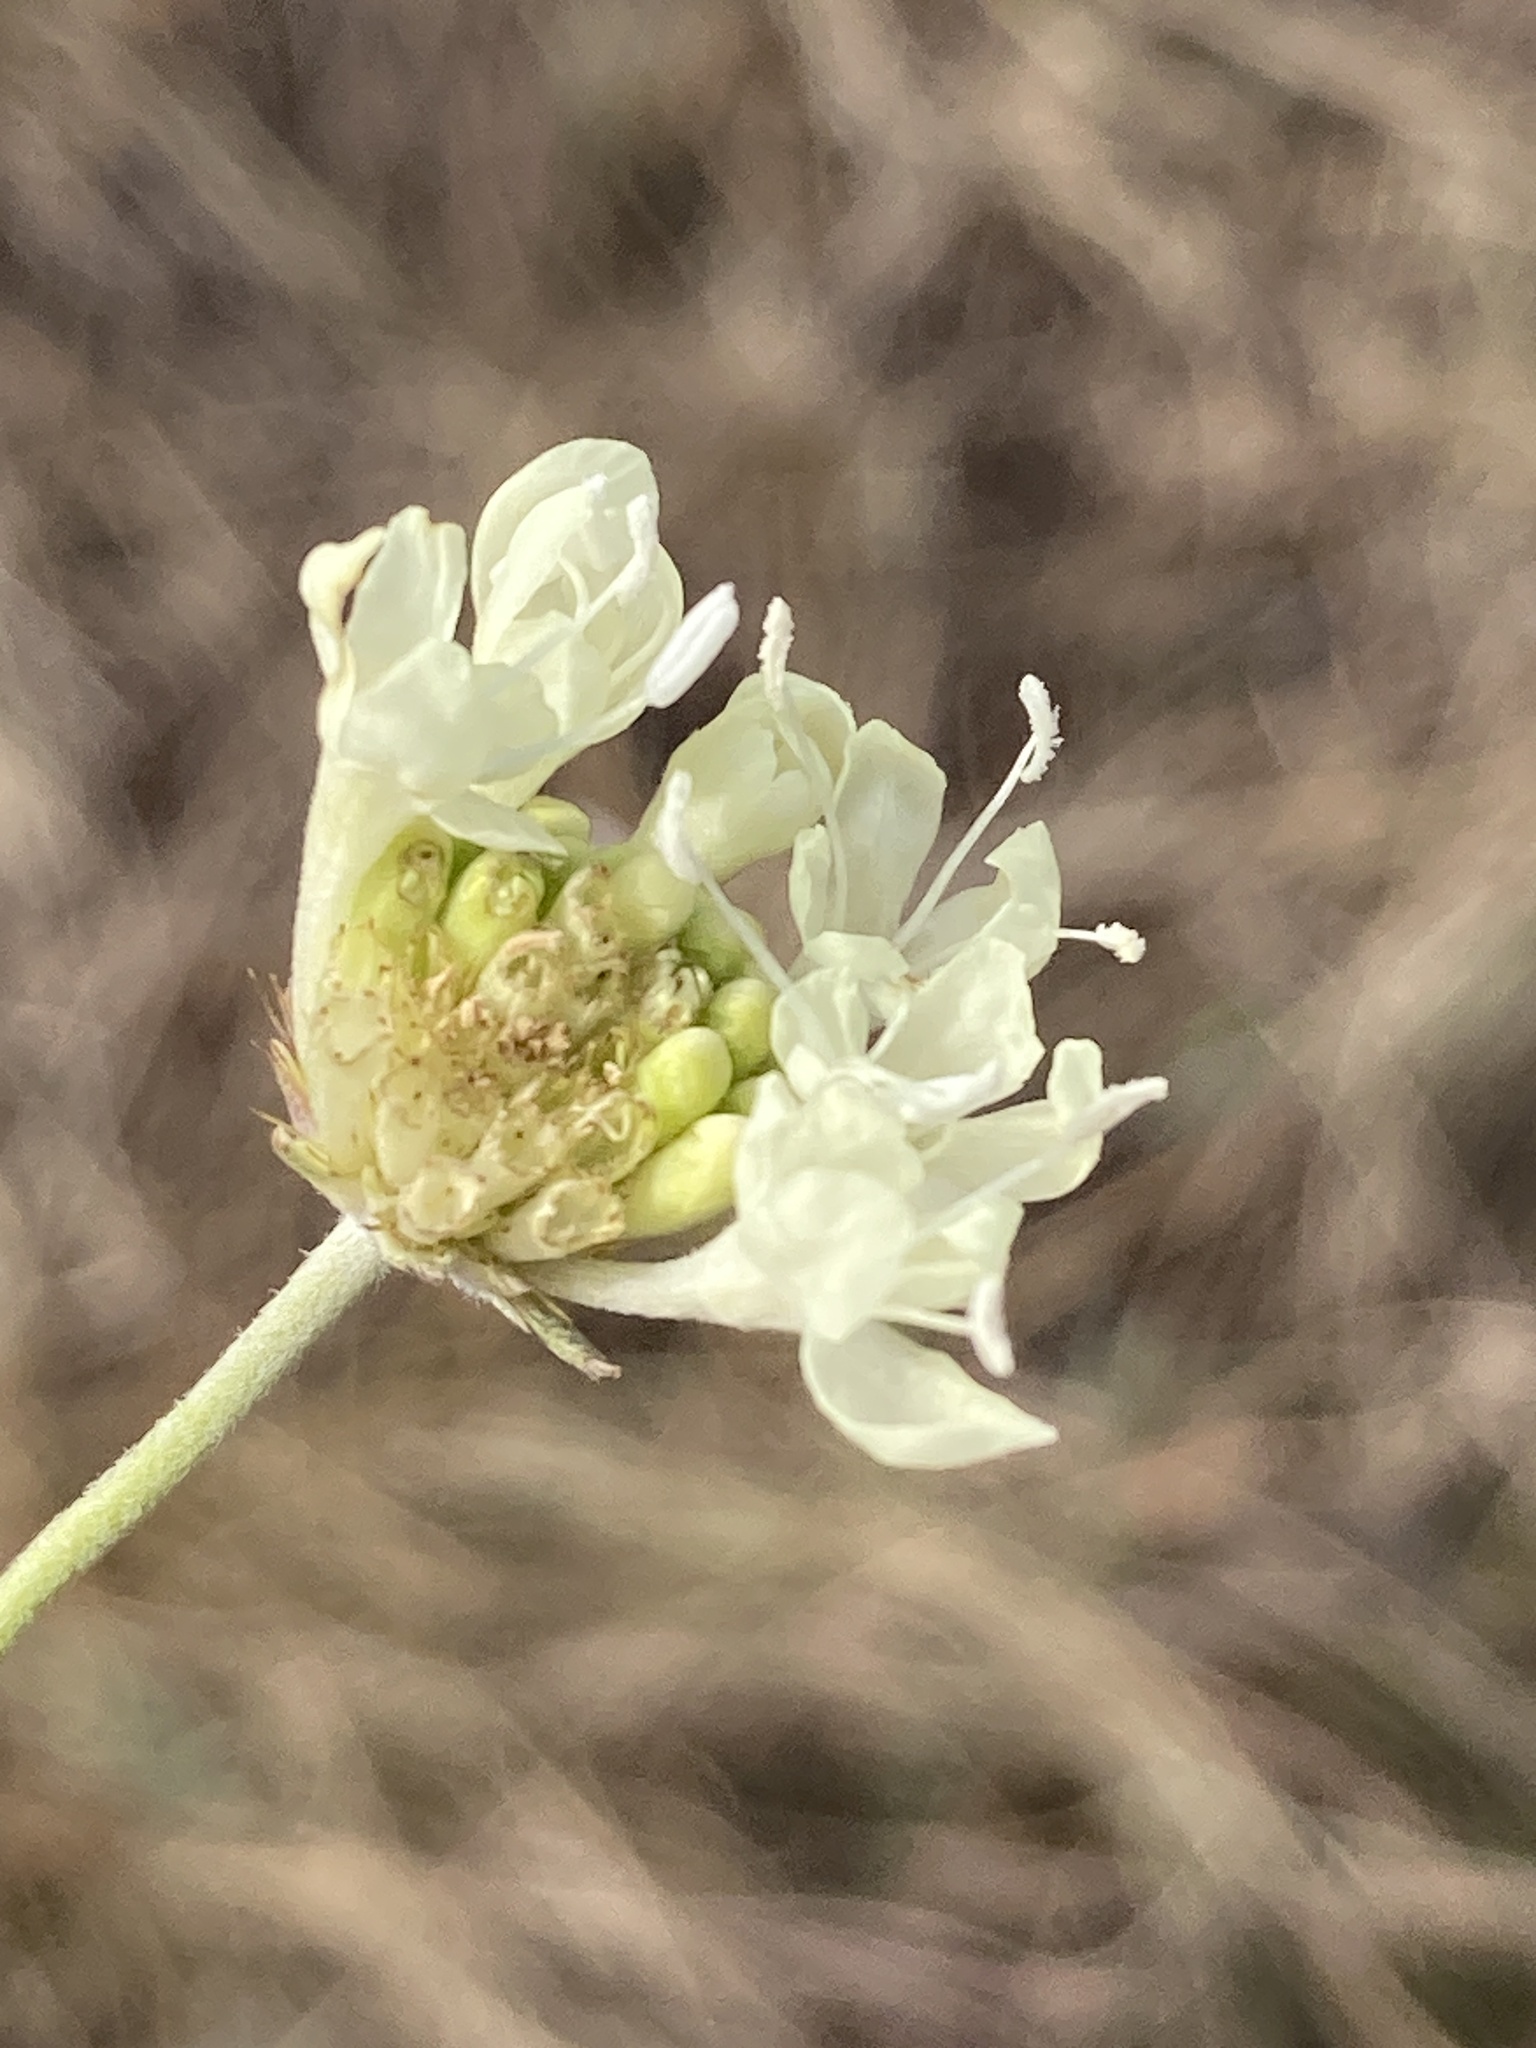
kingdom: Plantae
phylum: Tracheophyta
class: Magnoliopsida
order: Dipsacales
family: Caprifoliaceae
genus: Scabiosa
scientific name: Scabiosa ochroleuca
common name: Cream pincushions
